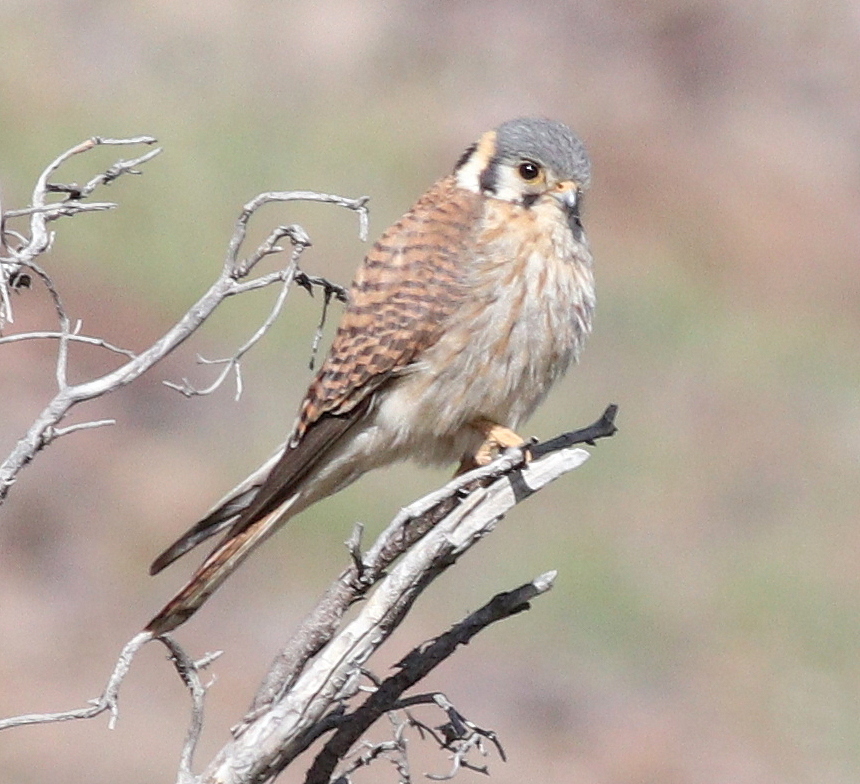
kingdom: Animalia
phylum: Chordata
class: Aves
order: Falconiformes
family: Falconidae
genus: Falco
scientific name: Falco sparverius
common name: American kestrel
